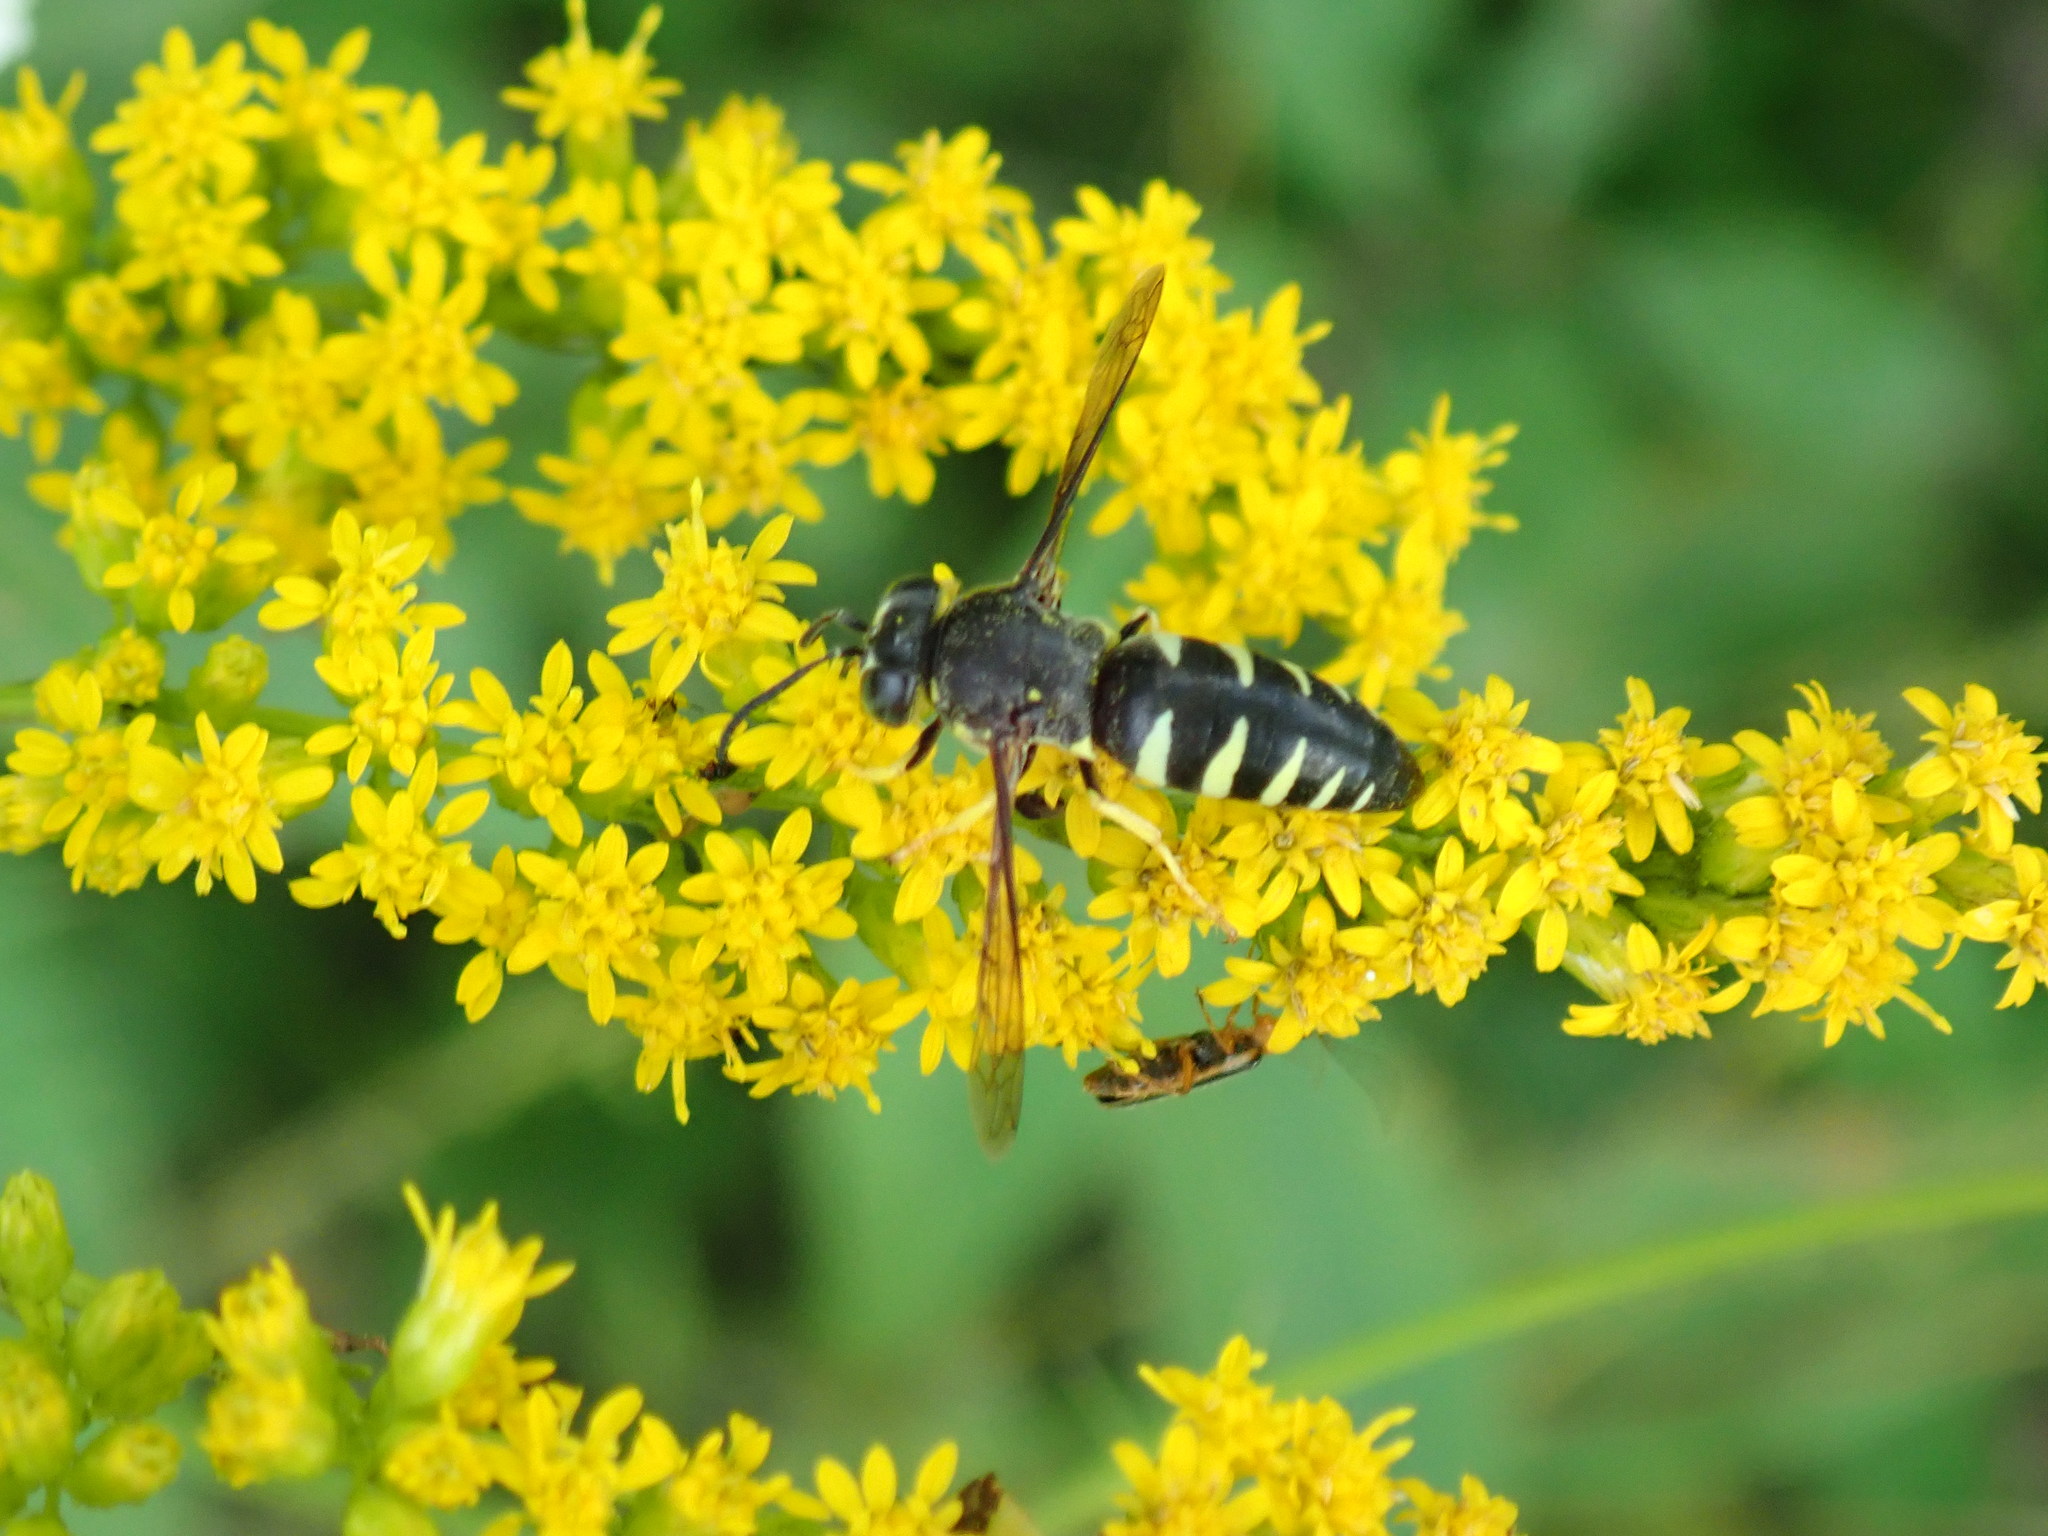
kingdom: Animalia
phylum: Arthropoda
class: Insecta
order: Hymenoptera
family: Crabronidae
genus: Bicyrtes
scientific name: Bicyrtes quadrifasciatus
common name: Four-banded stink bug hunter wasp
